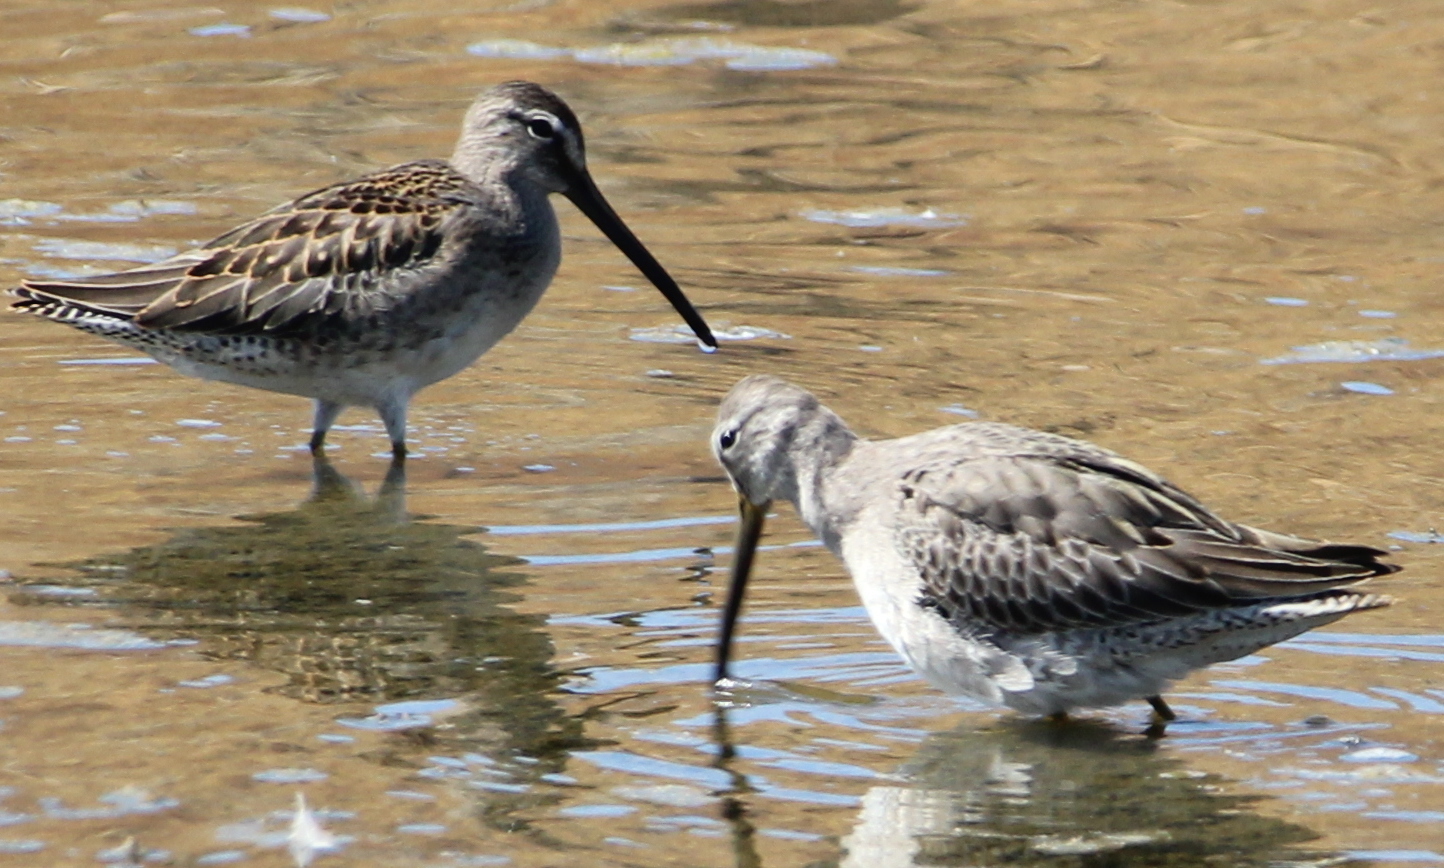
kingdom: Animalia
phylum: Chordata
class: Aves
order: Charadriiformes
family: Scolopacidae
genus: Limnodromus
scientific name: Limnodromus scolopaceus
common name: Long-billed dowitcher
